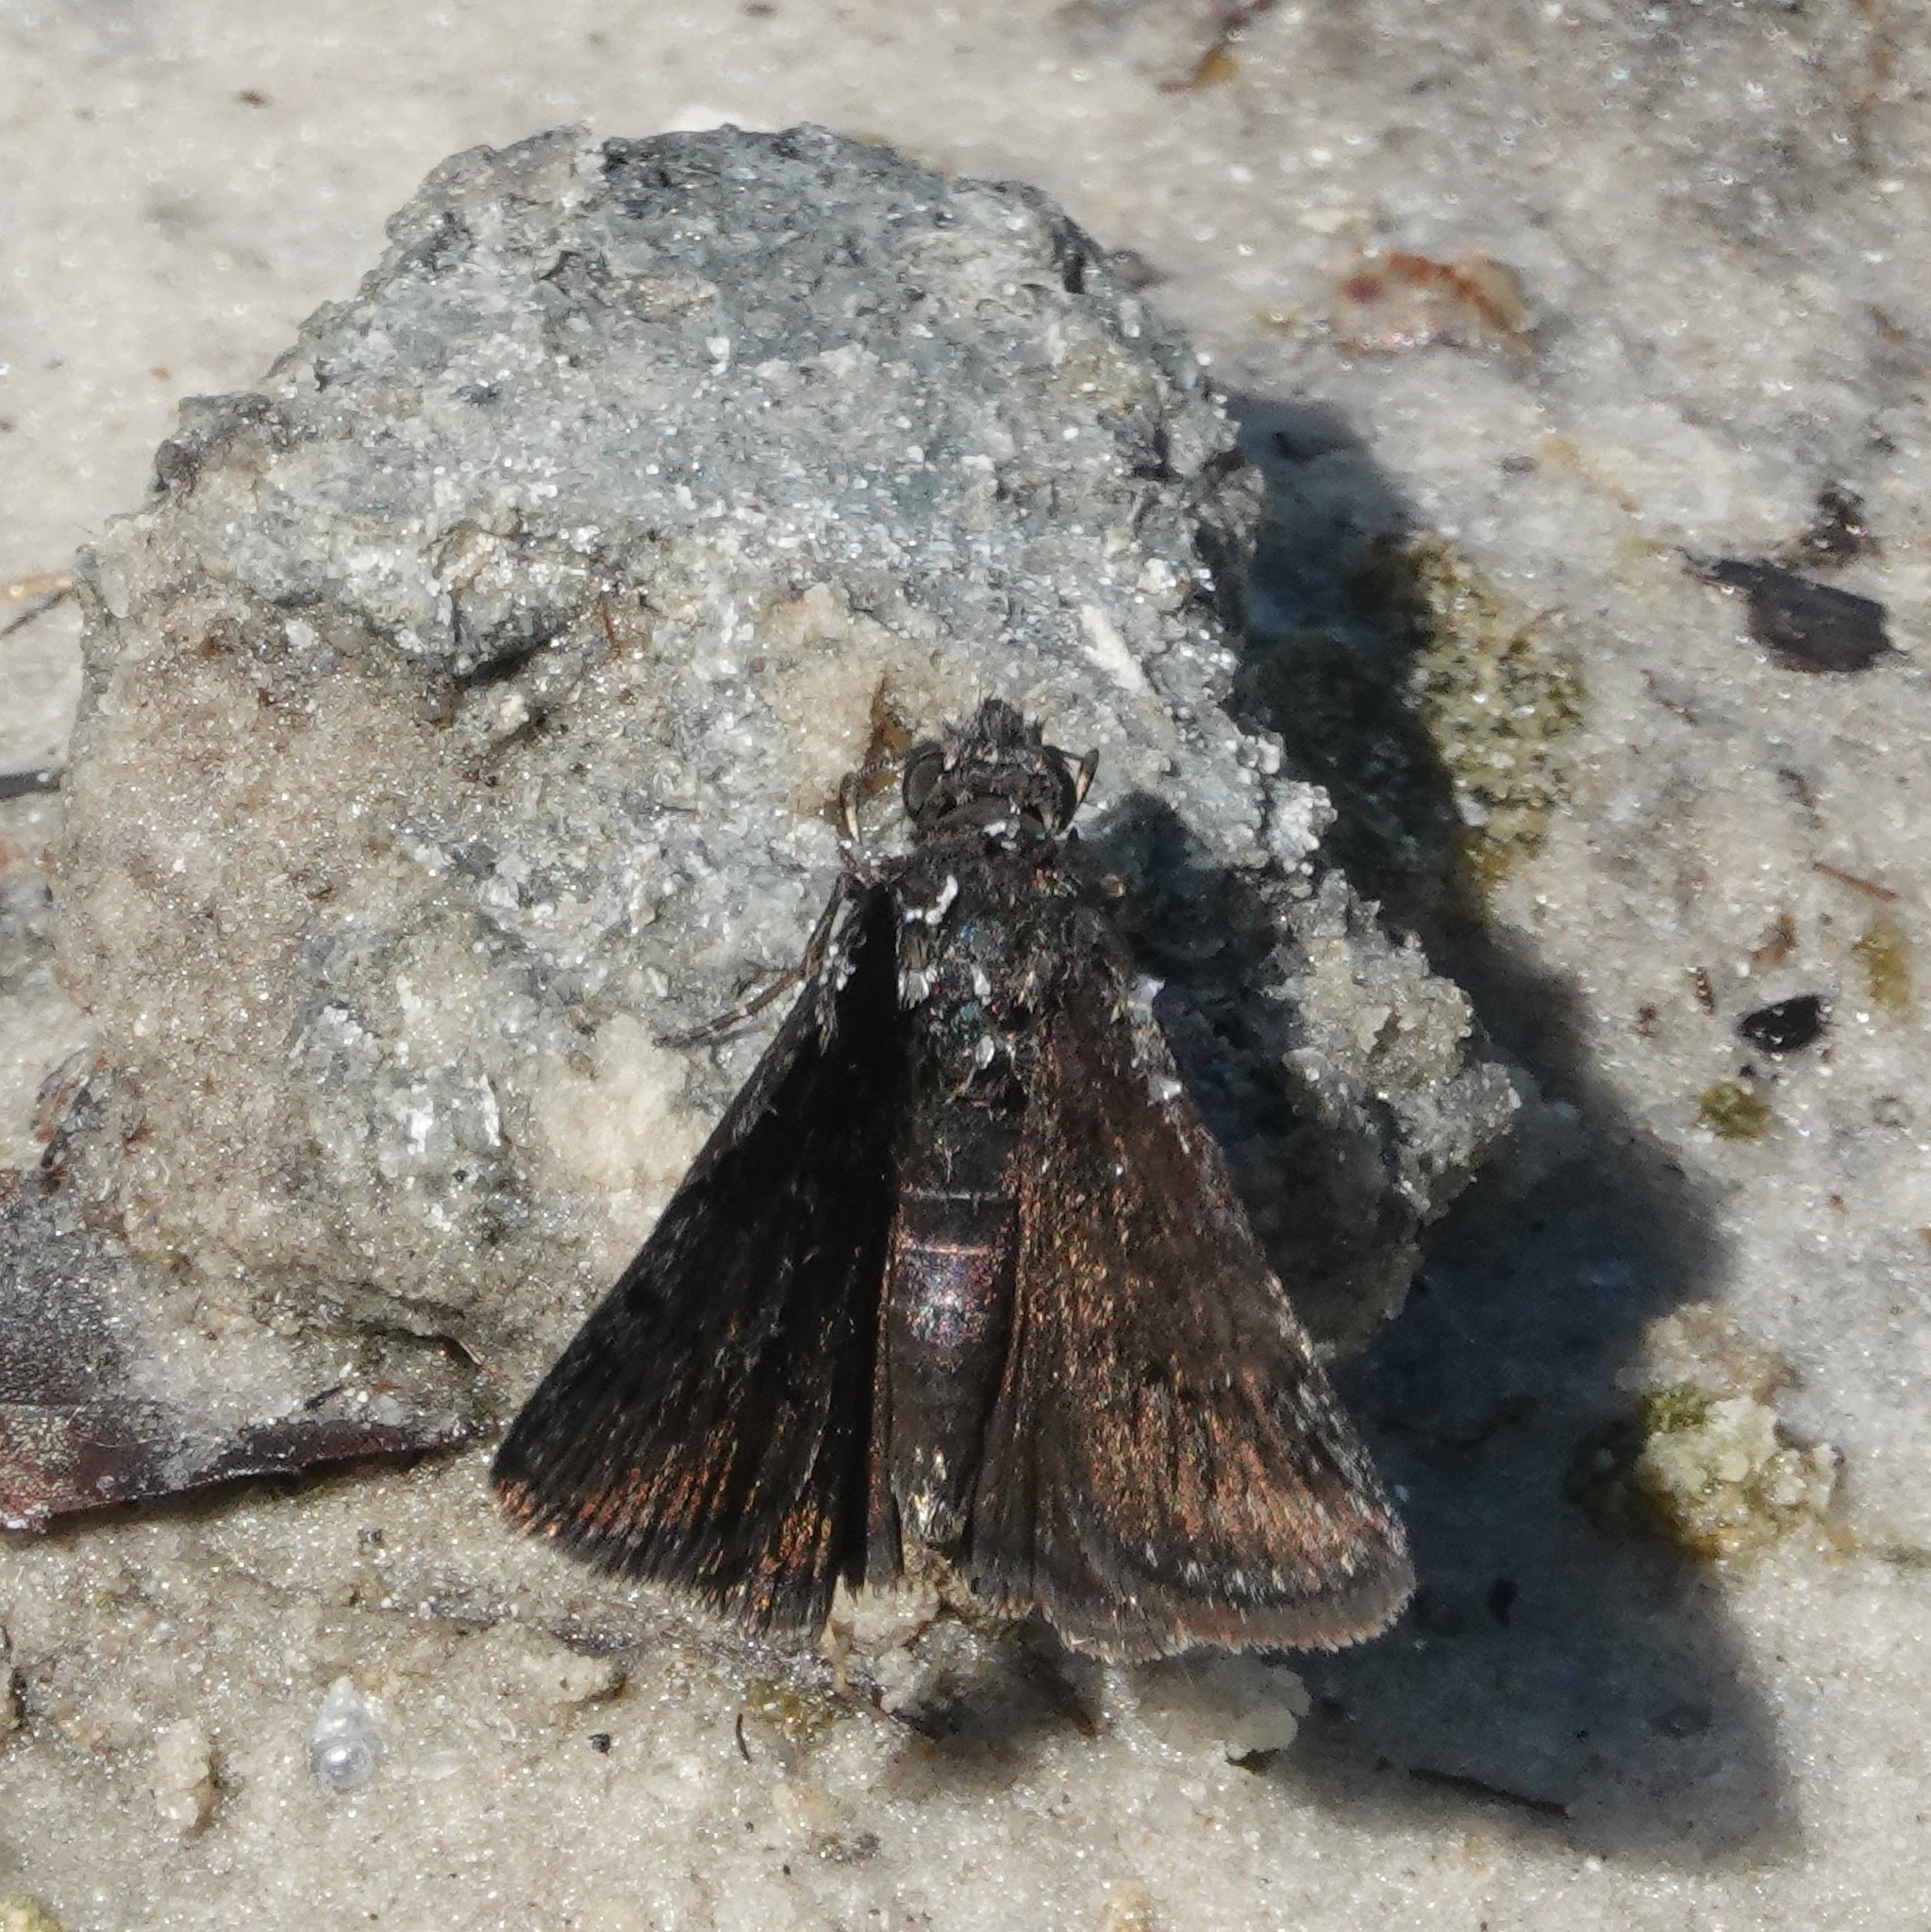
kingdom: Animalia
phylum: Arthropoda
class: Insecta
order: Lepidoptera
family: Hesperiidae
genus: Erynnis
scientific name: Erynnis brizo
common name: Sleepy duskywing
